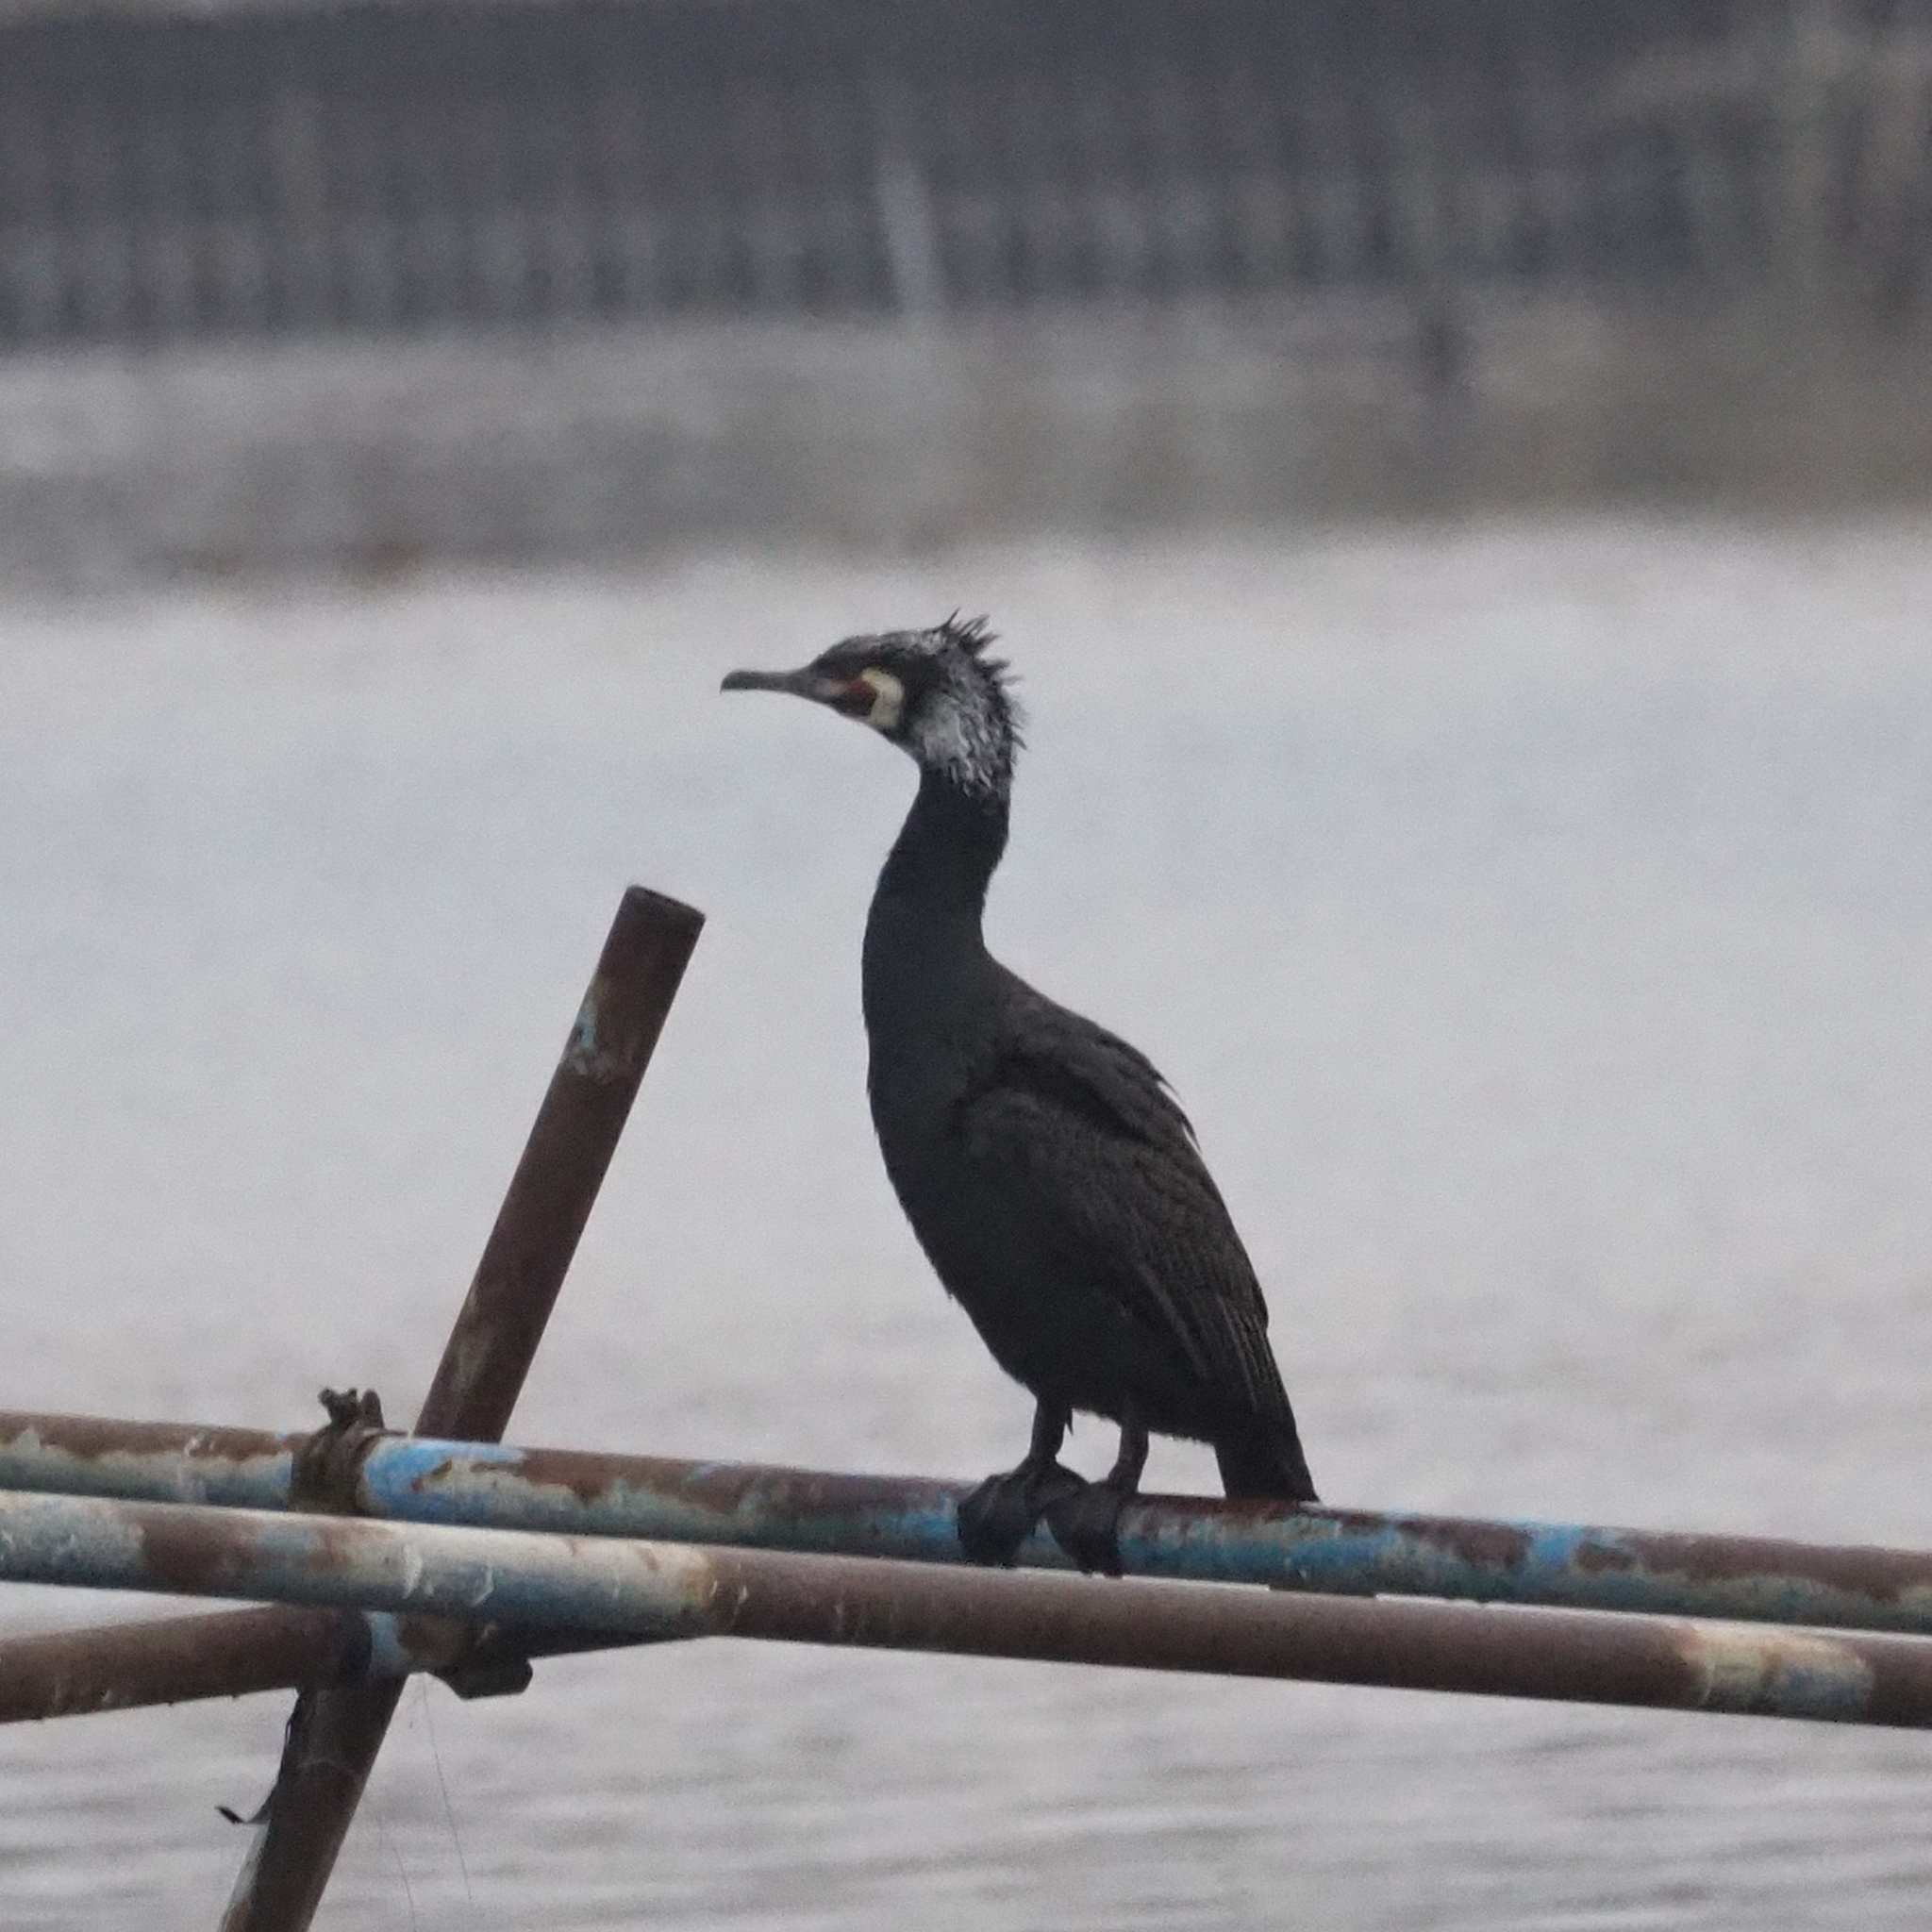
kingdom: Animalia
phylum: Chordata
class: Aves
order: Suliformes
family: Phalacrocoracidae
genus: Phalacrocorax
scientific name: Phalacrocorax carbo
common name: Great cormorant
